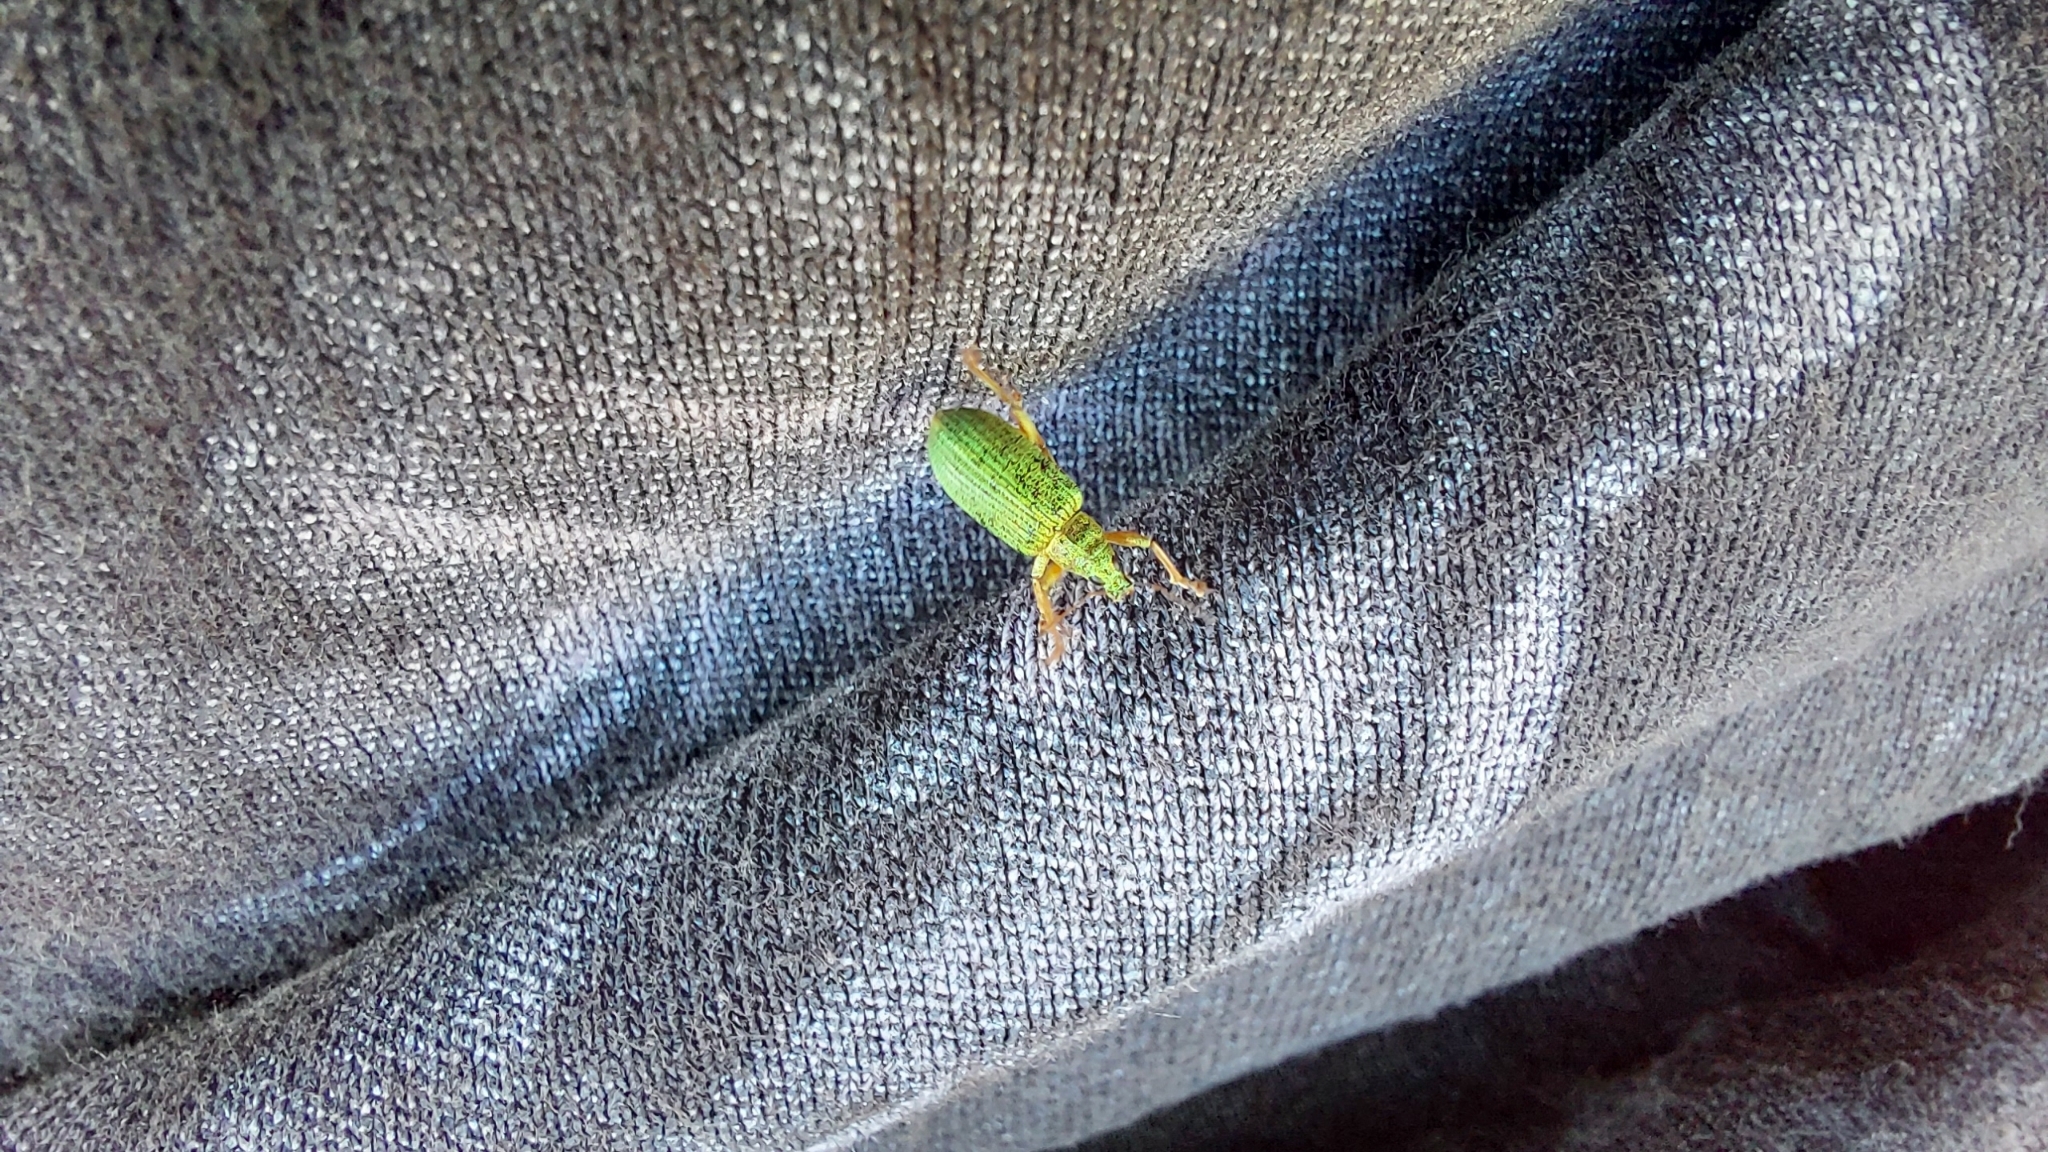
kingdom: Animalia
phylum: Arthropoda
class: Insecta
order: Coleoptera
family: Curculionidae
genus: Polydrusus
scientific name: Polydrusus formosus
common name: Weevil
